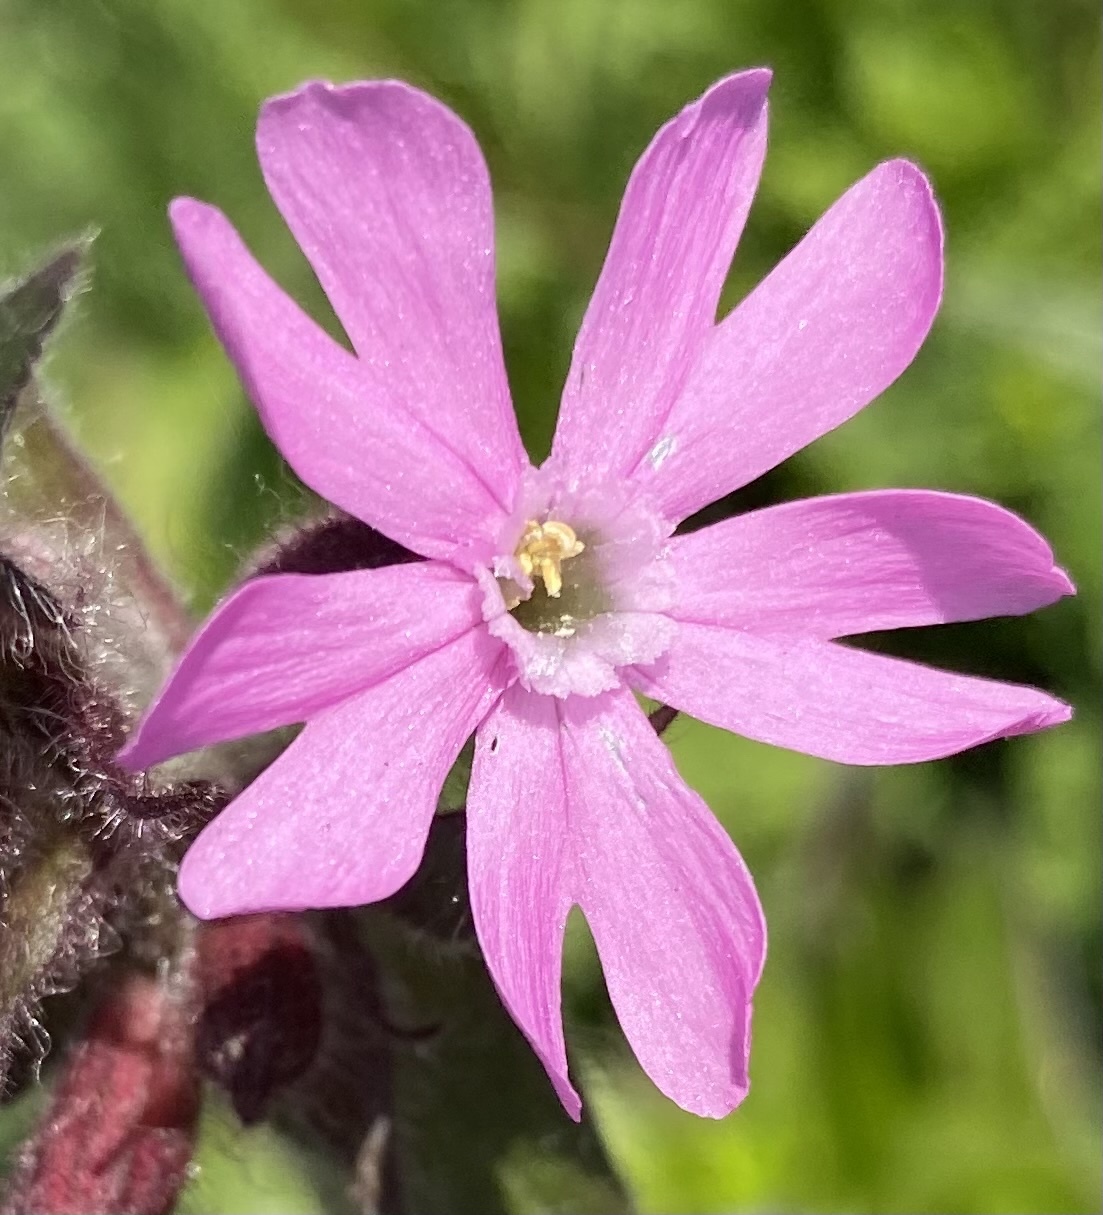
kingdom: Plantae
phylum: Tracheophyta
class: Magnoliopsida
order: Caryophyllales
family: Caryophyllaceae
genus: Silene
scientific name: Silene dioica
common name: Red campion
